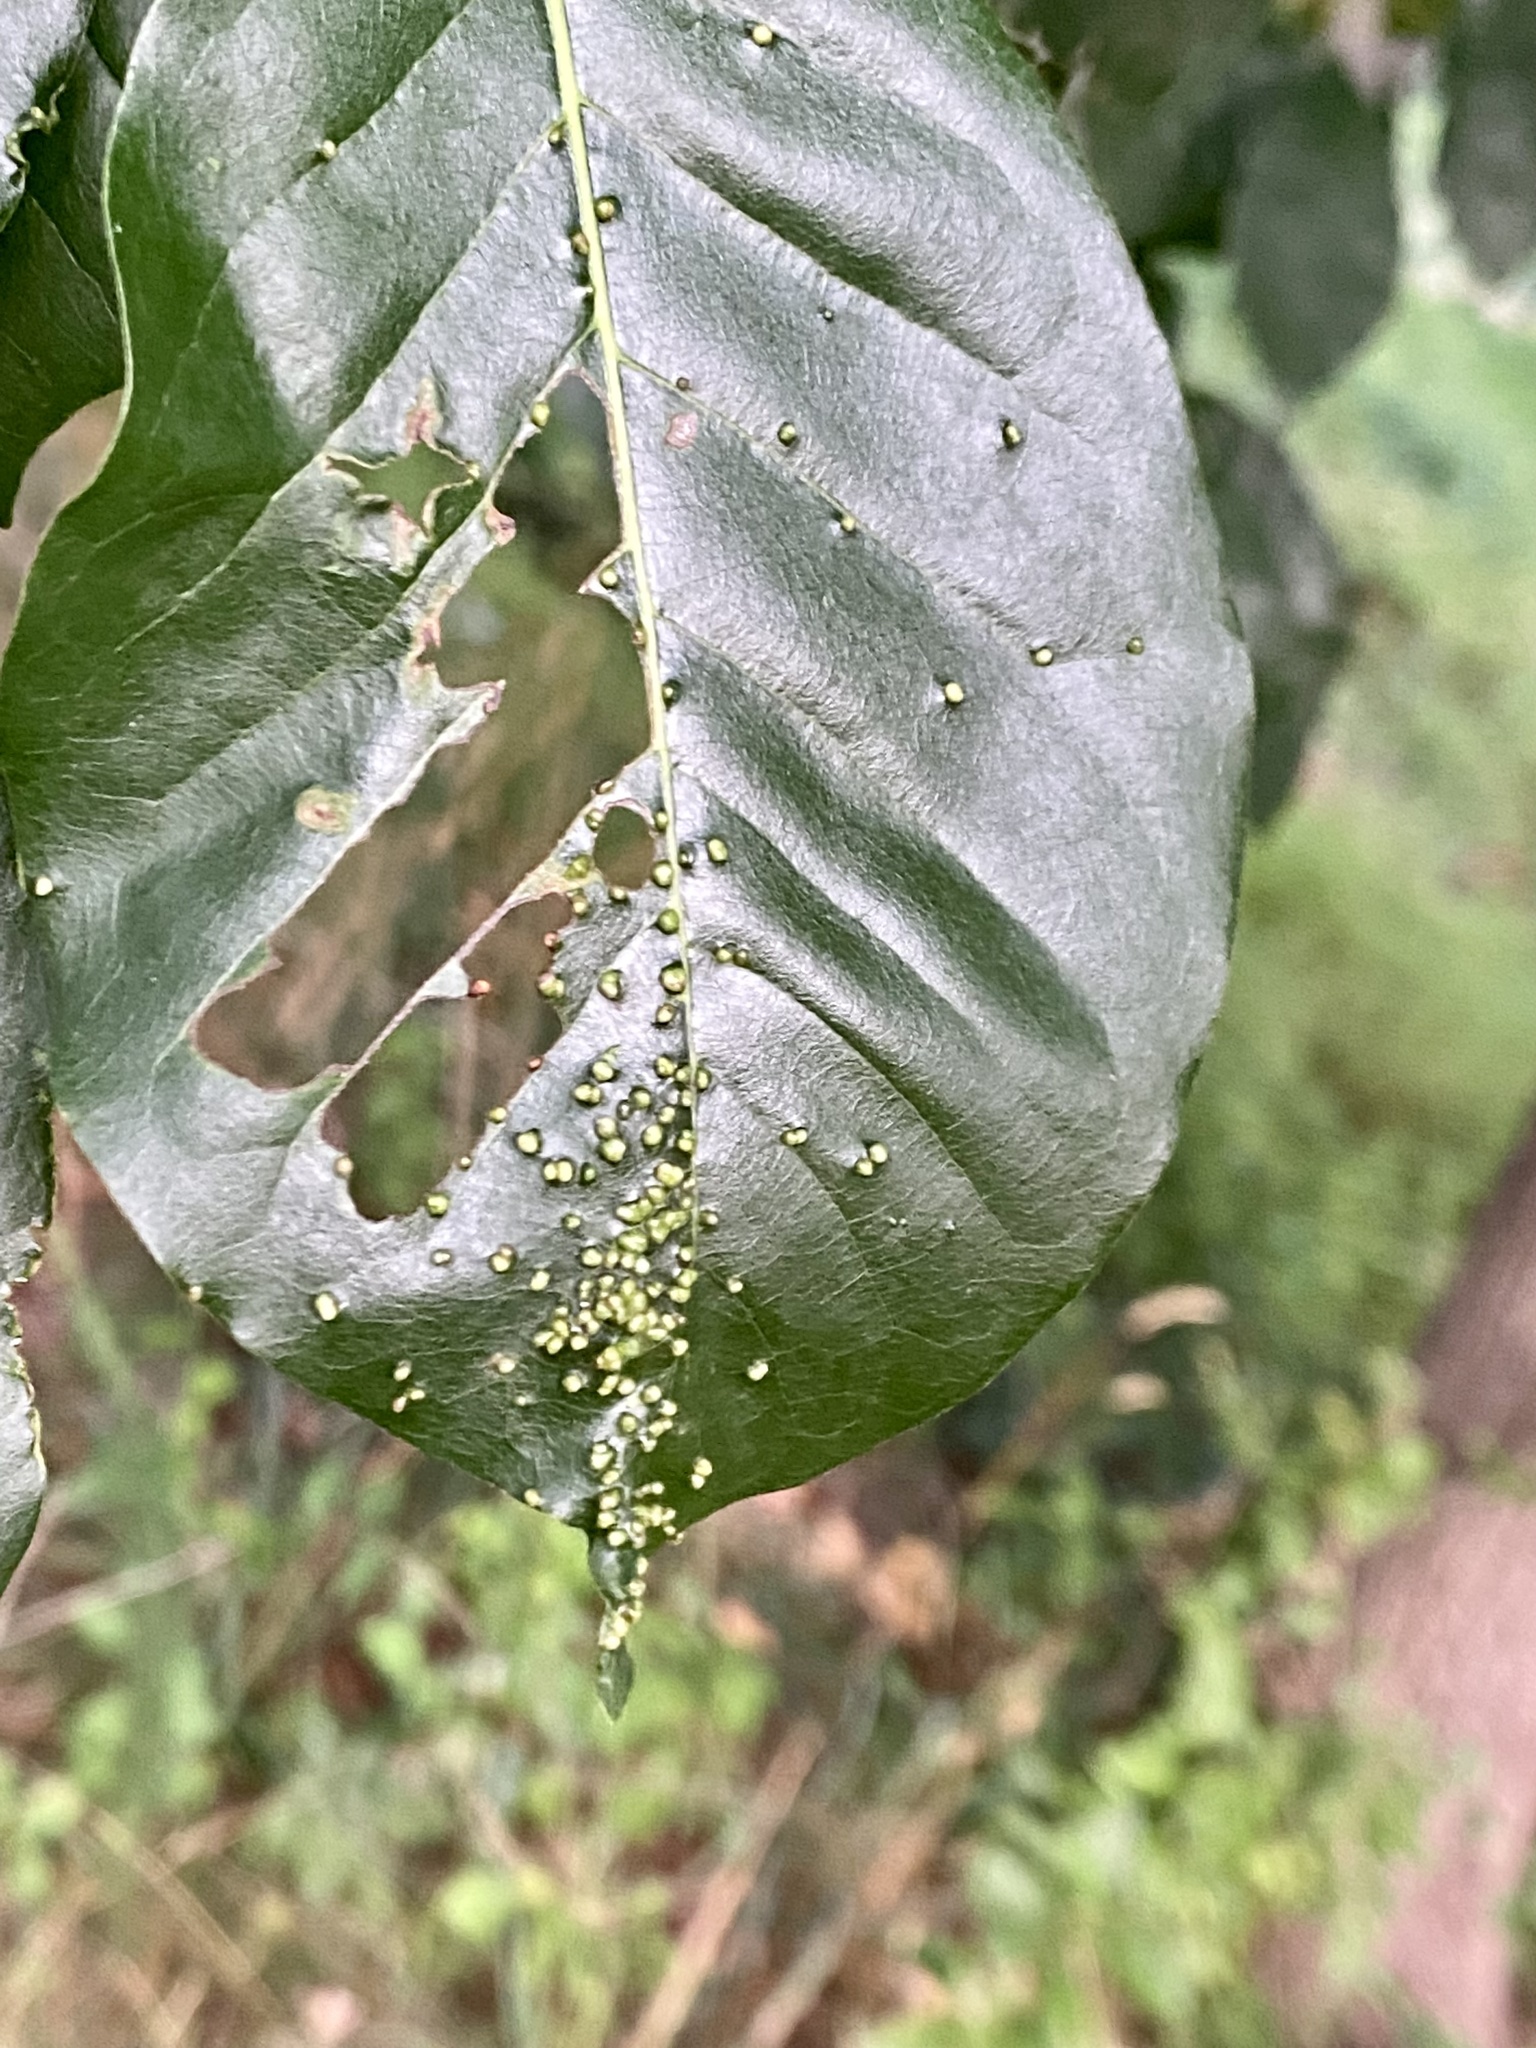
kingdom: Animalia
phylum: Arthropoda
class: Arachnida
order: Trombidiformes
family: Eriophyidae
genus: Aceria
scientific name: Aceria
